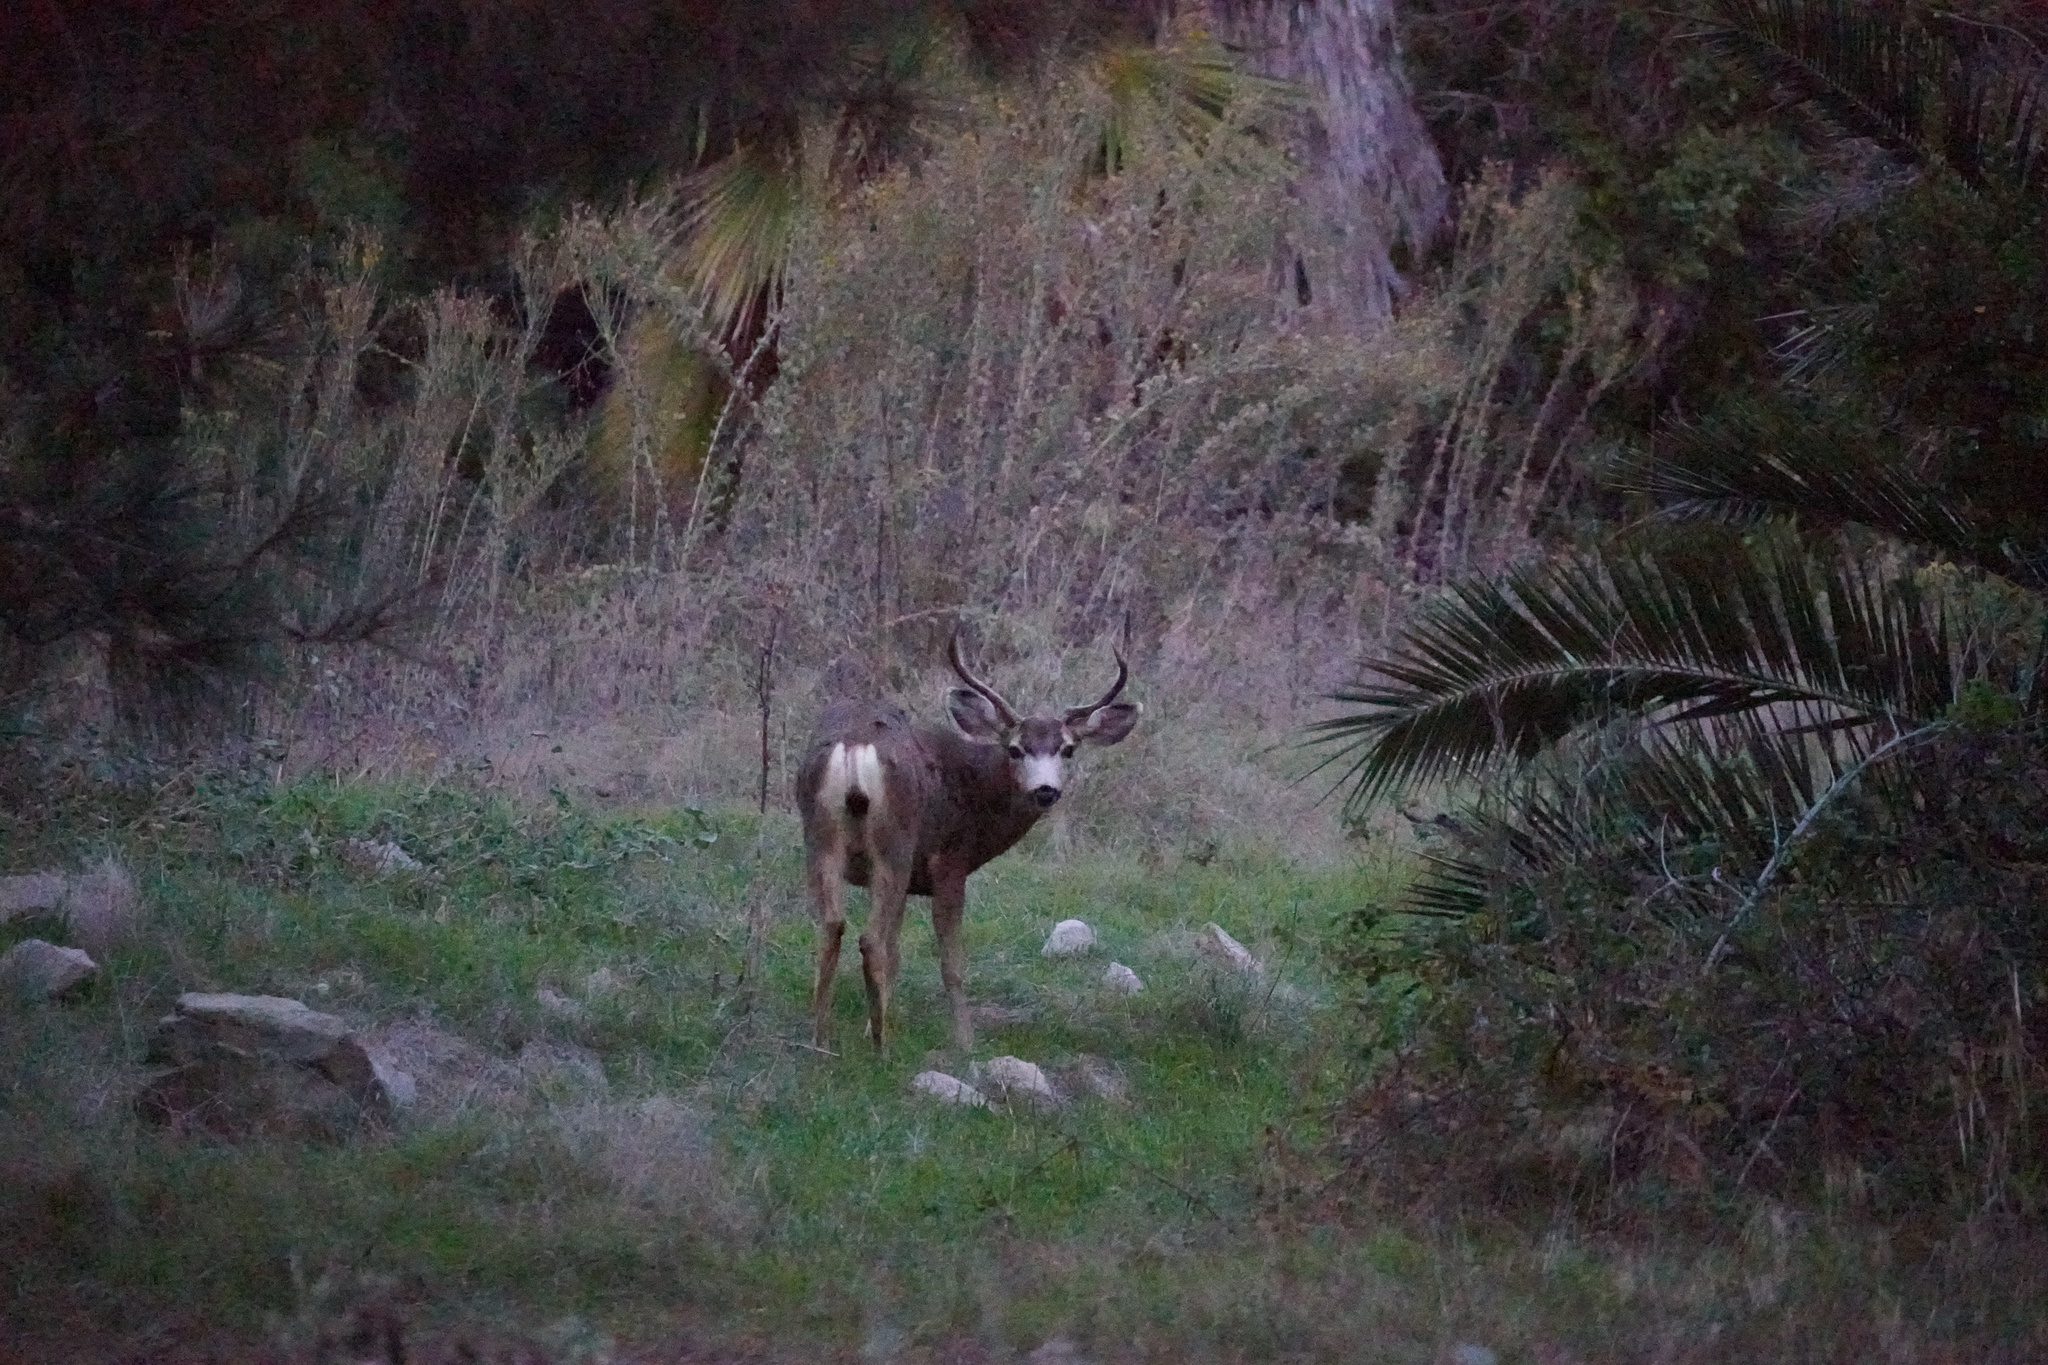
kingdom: Animalia
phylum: Chordata
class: Mammalia
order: Artiodactyla
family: Cervidae
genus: Odocoileus
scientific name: Odocoileus hemionus
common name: Mule deer
